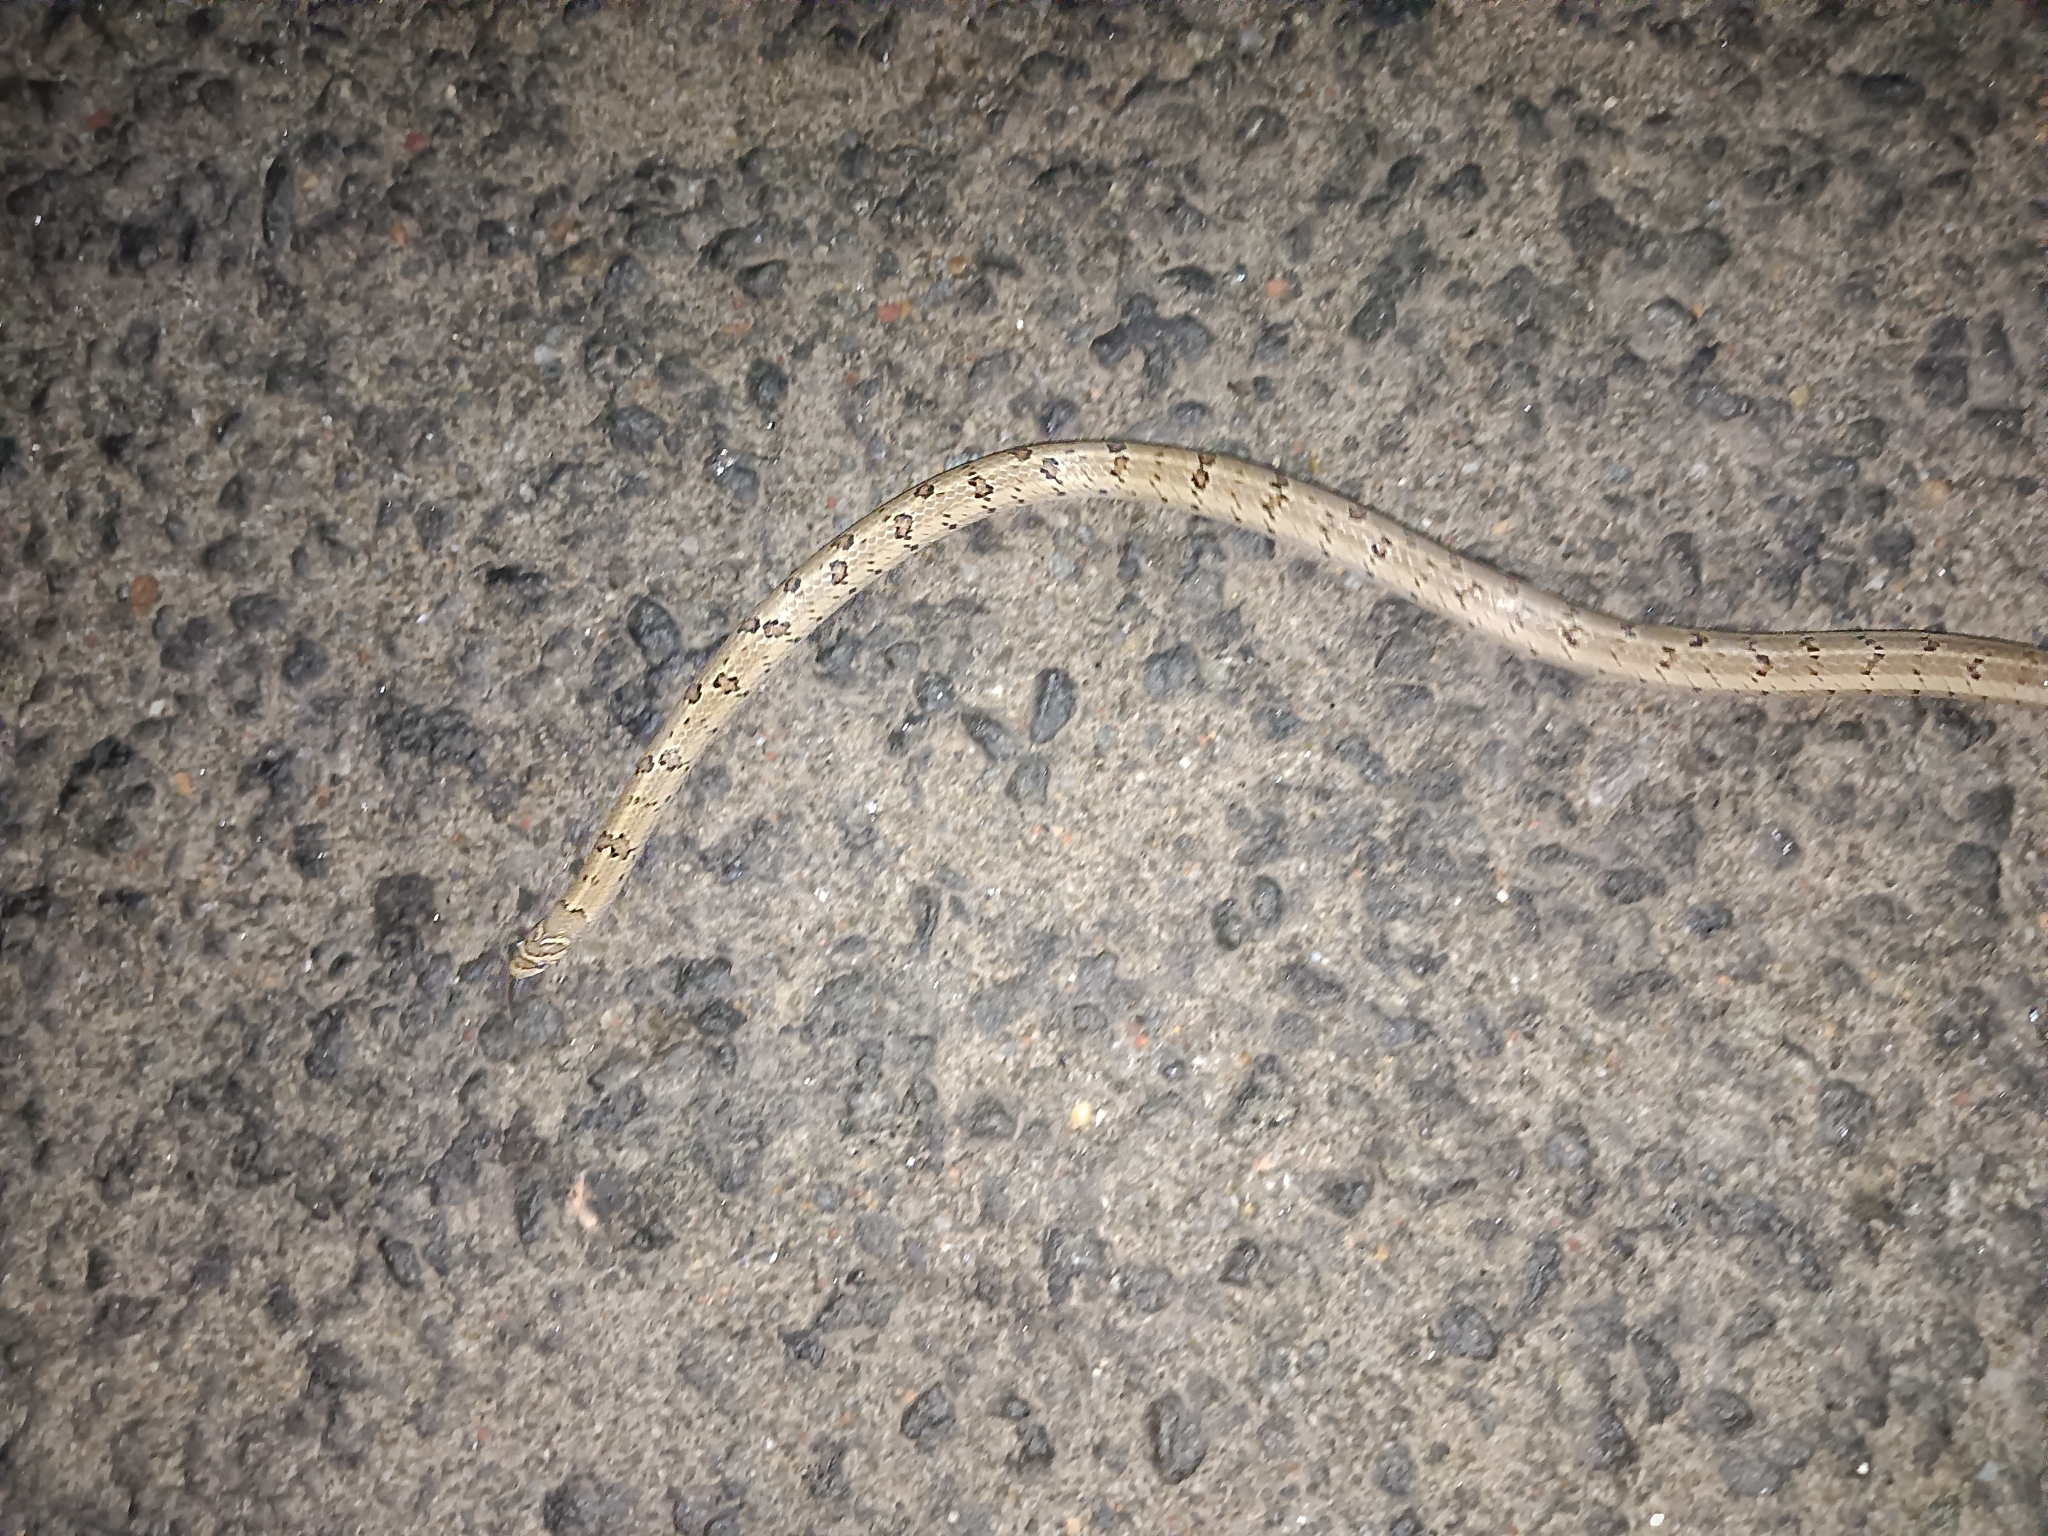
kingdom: Animalia
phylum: Chordata
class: Squamata
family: Colubridae
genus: Oligodon
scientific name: Oligodon taeniolatus
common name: Loos snake
